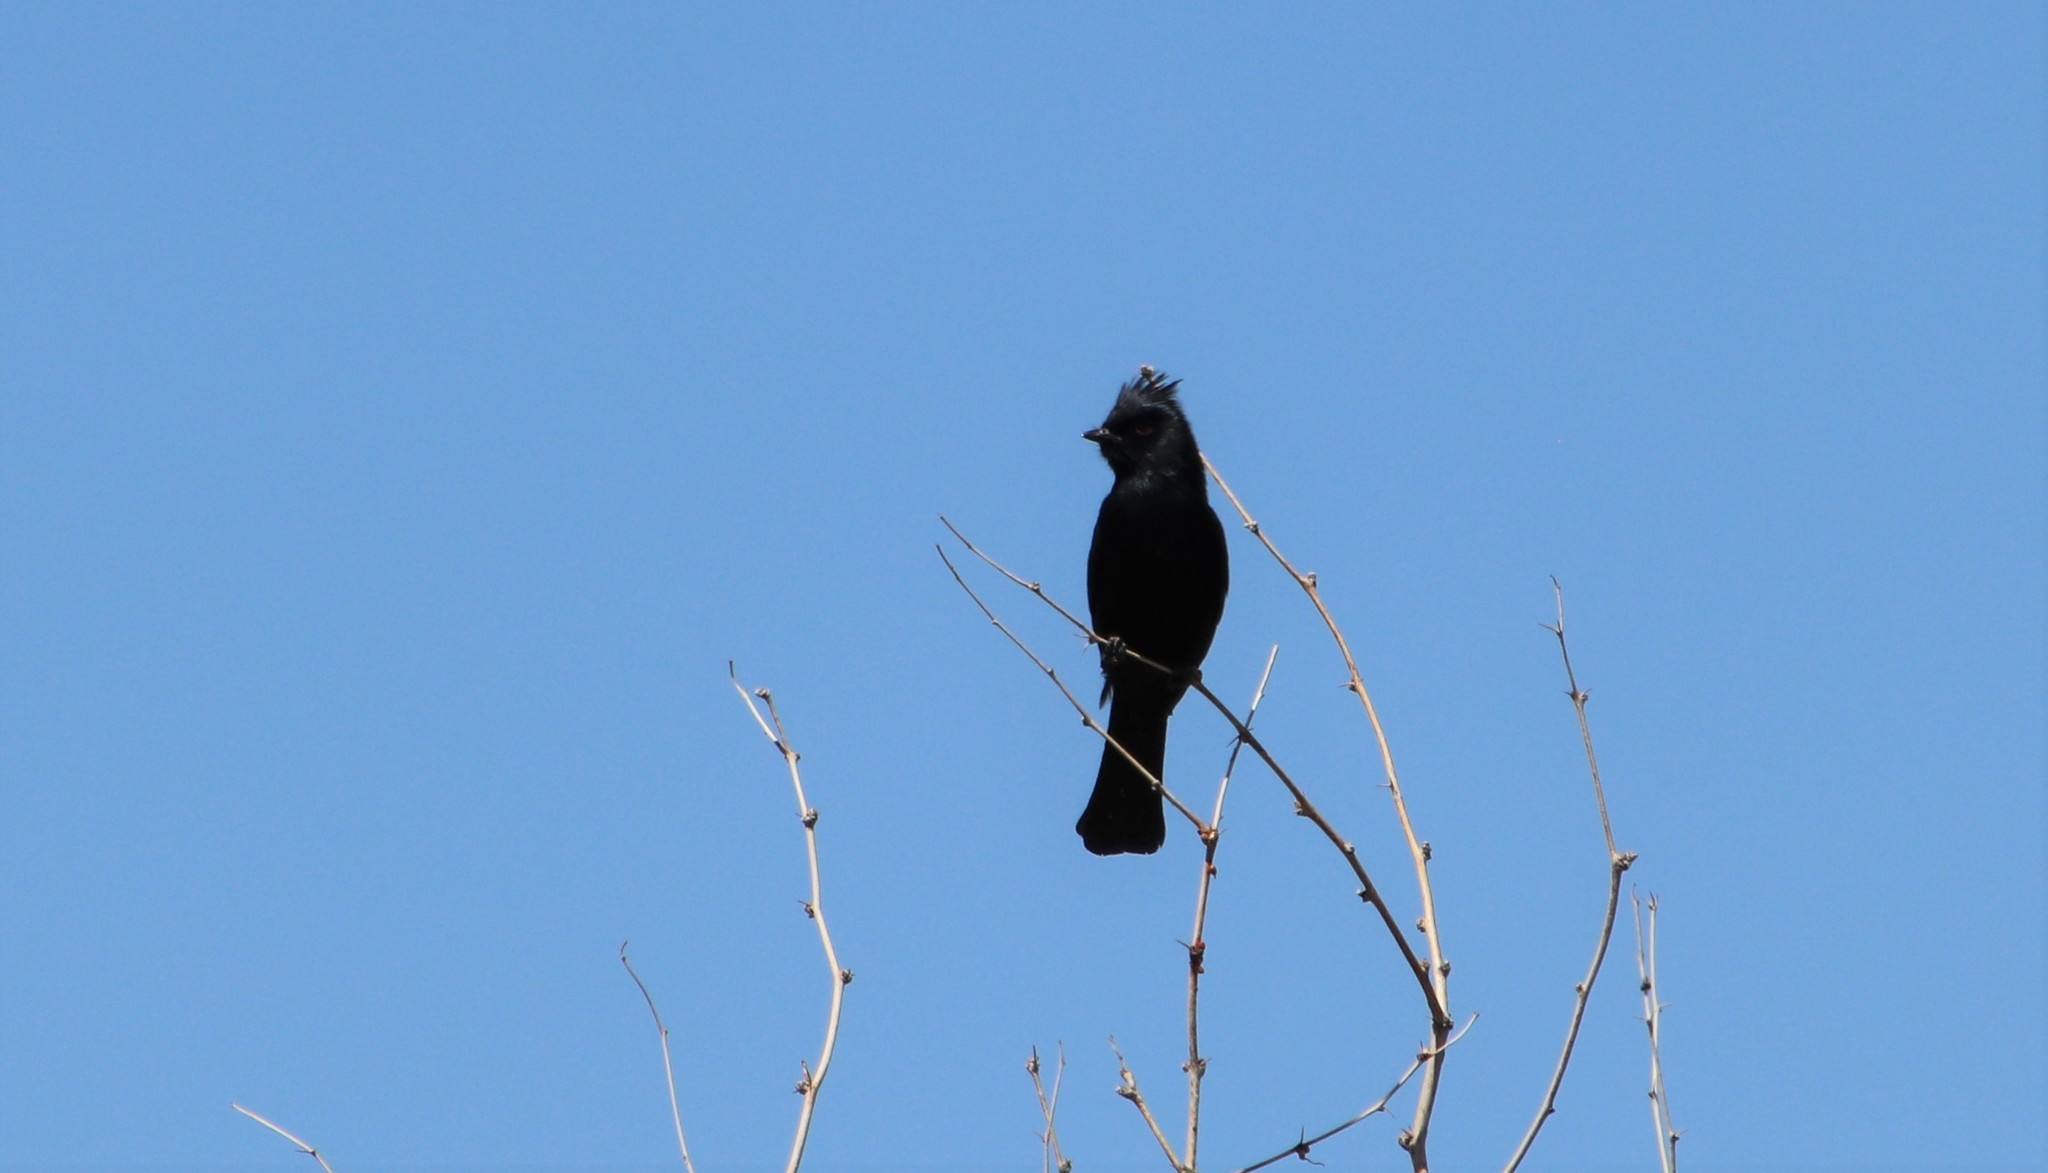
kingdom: Animalia
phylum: Chordata
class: Aves
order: Passeriformes
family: Ptilogonatidae
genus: Phainopepla
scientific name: Phainopepla nitens
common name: Phainopepla
